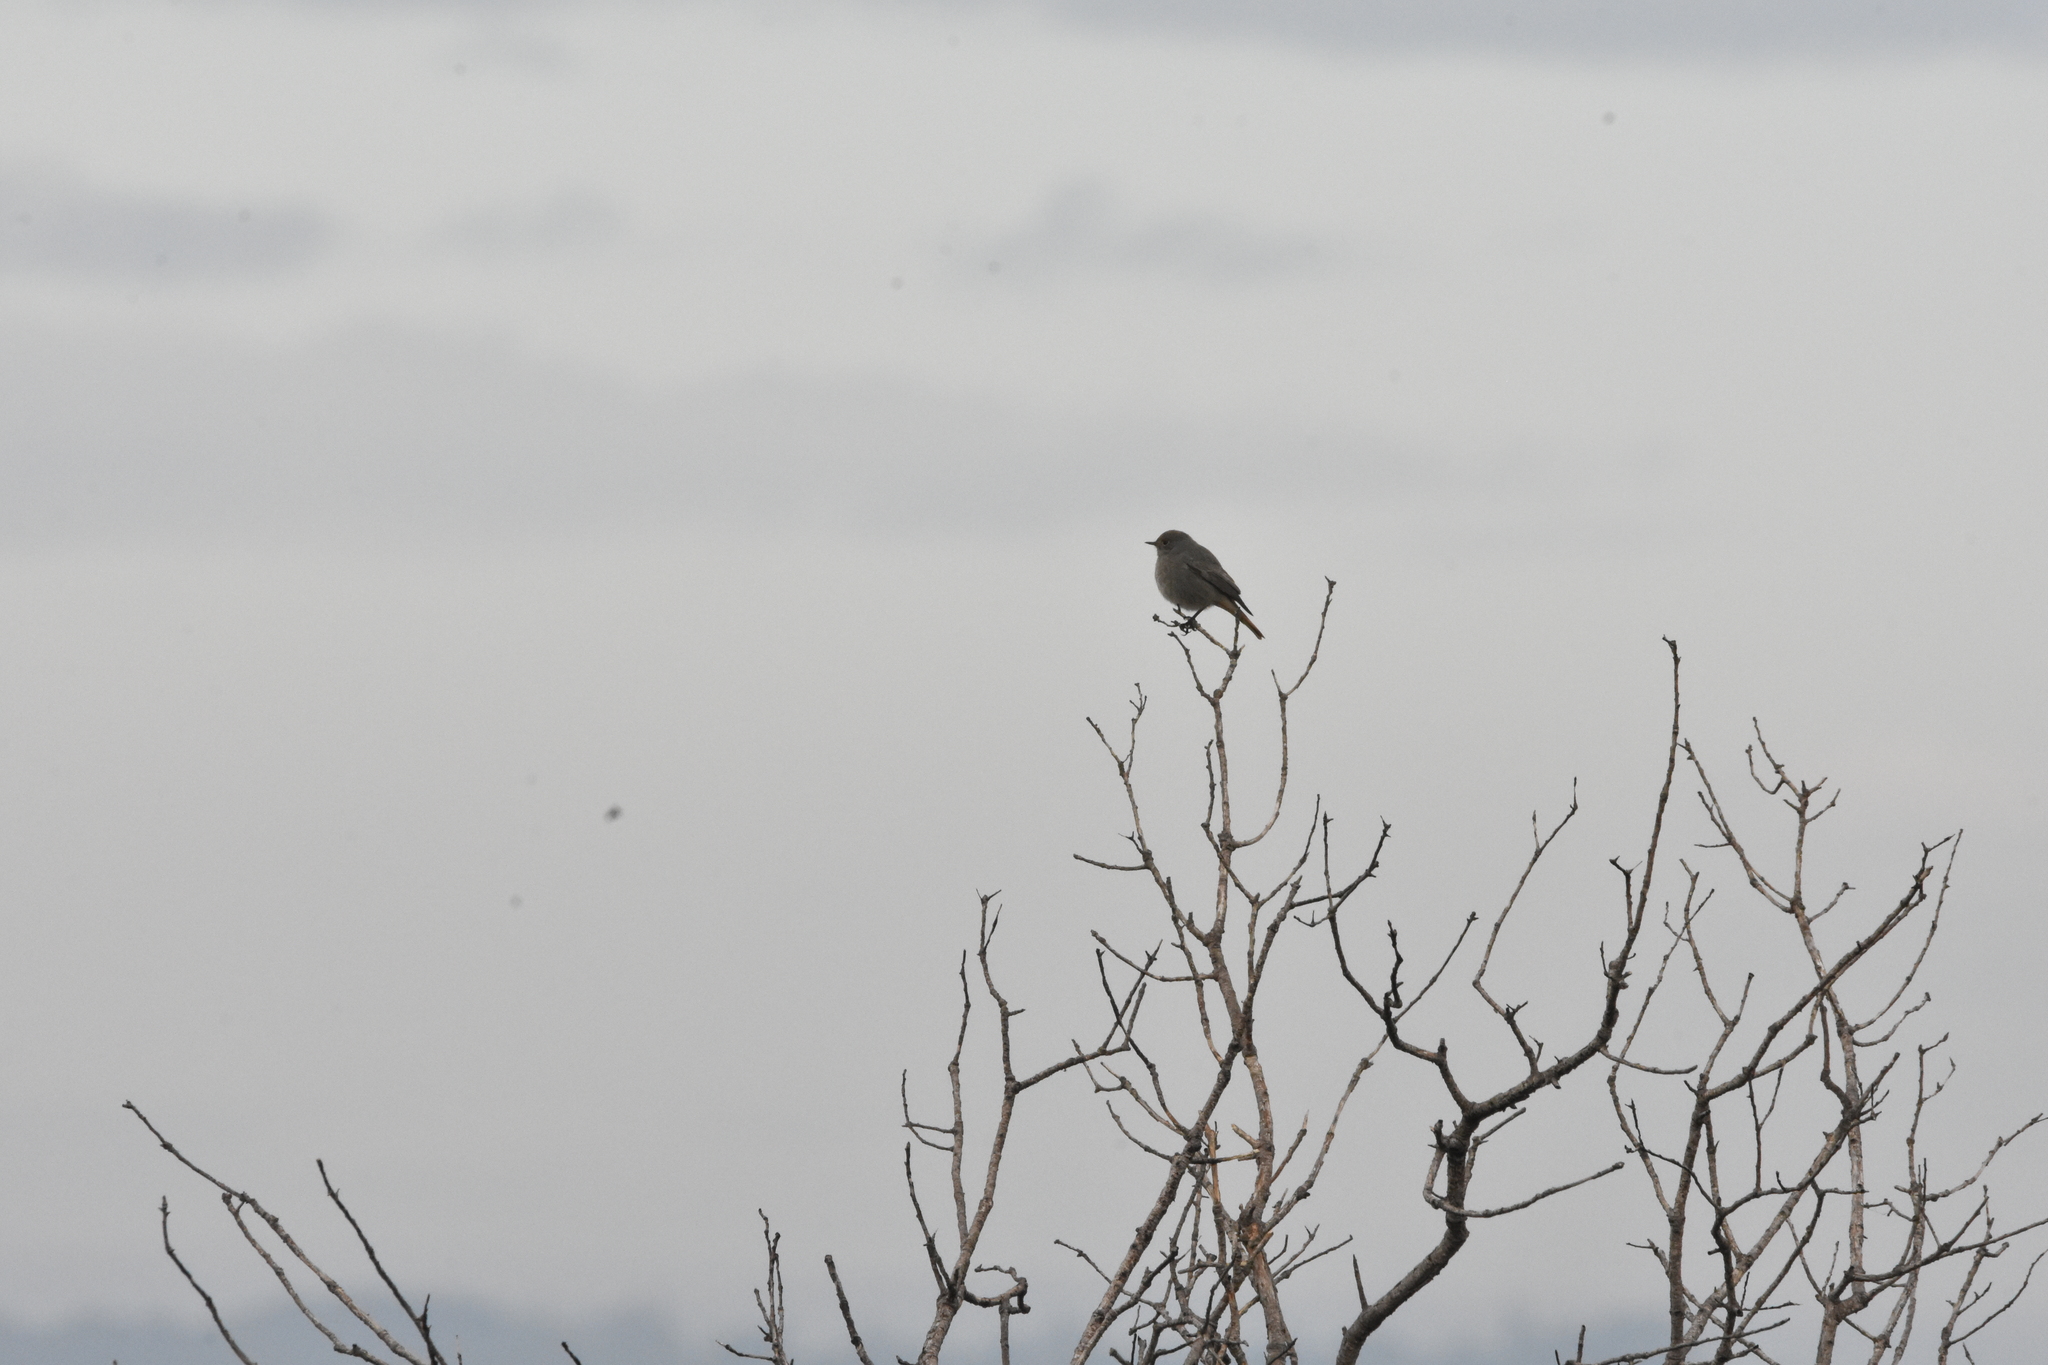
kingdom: Animalia
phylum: Chordata
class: Aves
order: Passeriformes
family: Muscicapidae
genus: Phoenicurus
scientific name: Phoenicurus ochruros
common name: Black redstart
